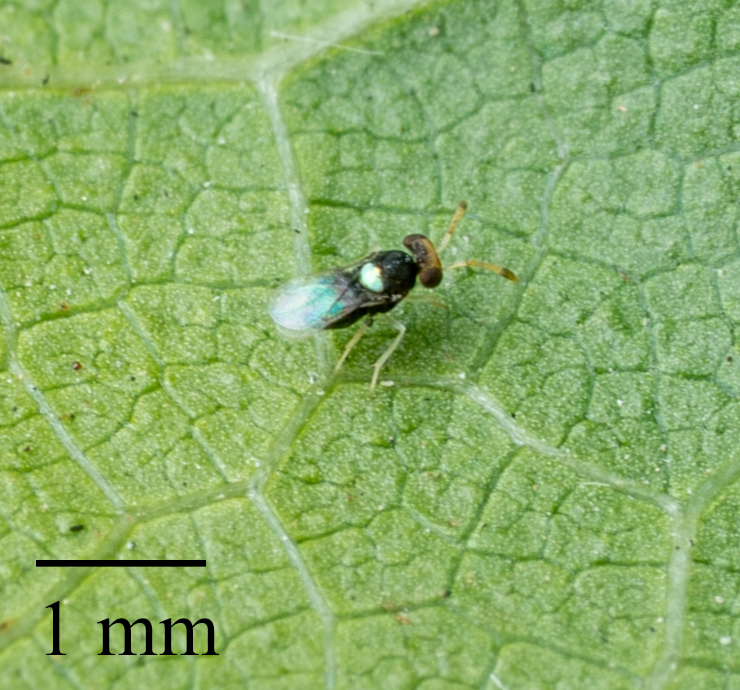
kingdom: Animalia
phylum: Arthropoda
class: Insecta
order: Hymenoptera
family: Aphelinidae
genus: Encarsiella
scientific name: Encarsiella noyesi
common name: Parasitoid wasp
